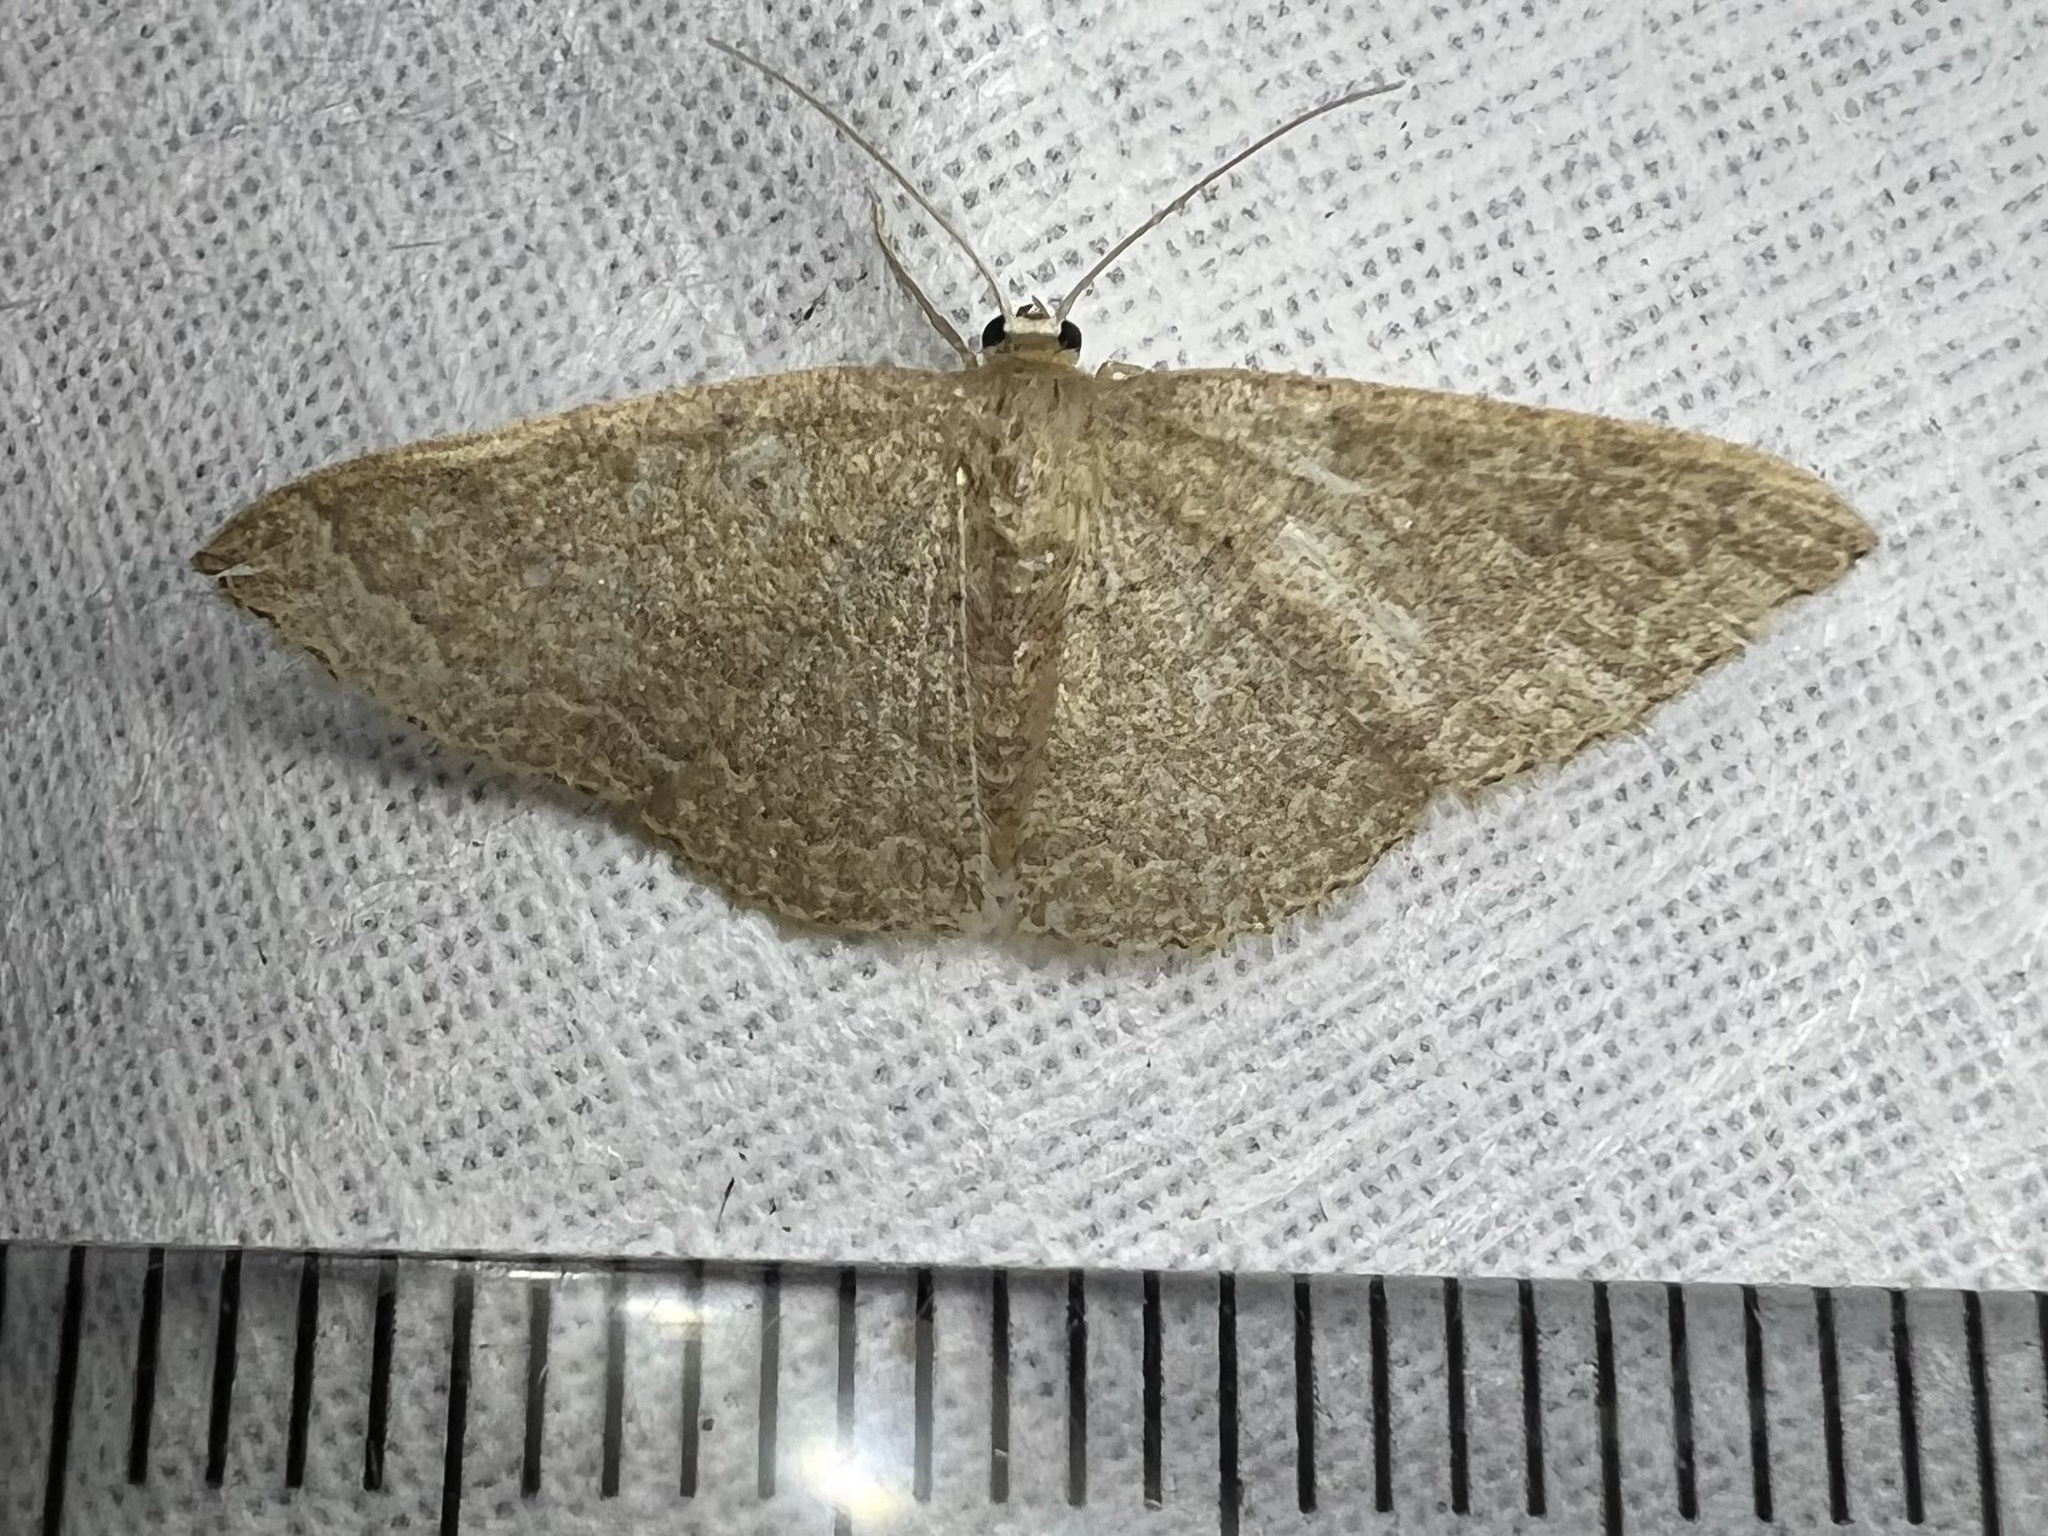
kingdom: Animalia
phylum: Arthropoda
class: Insecta
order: Lepidoptera
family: Geometridae
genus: Pleuroprucha
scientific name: Pleuroprucha insulsaria
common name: Common tan wave
